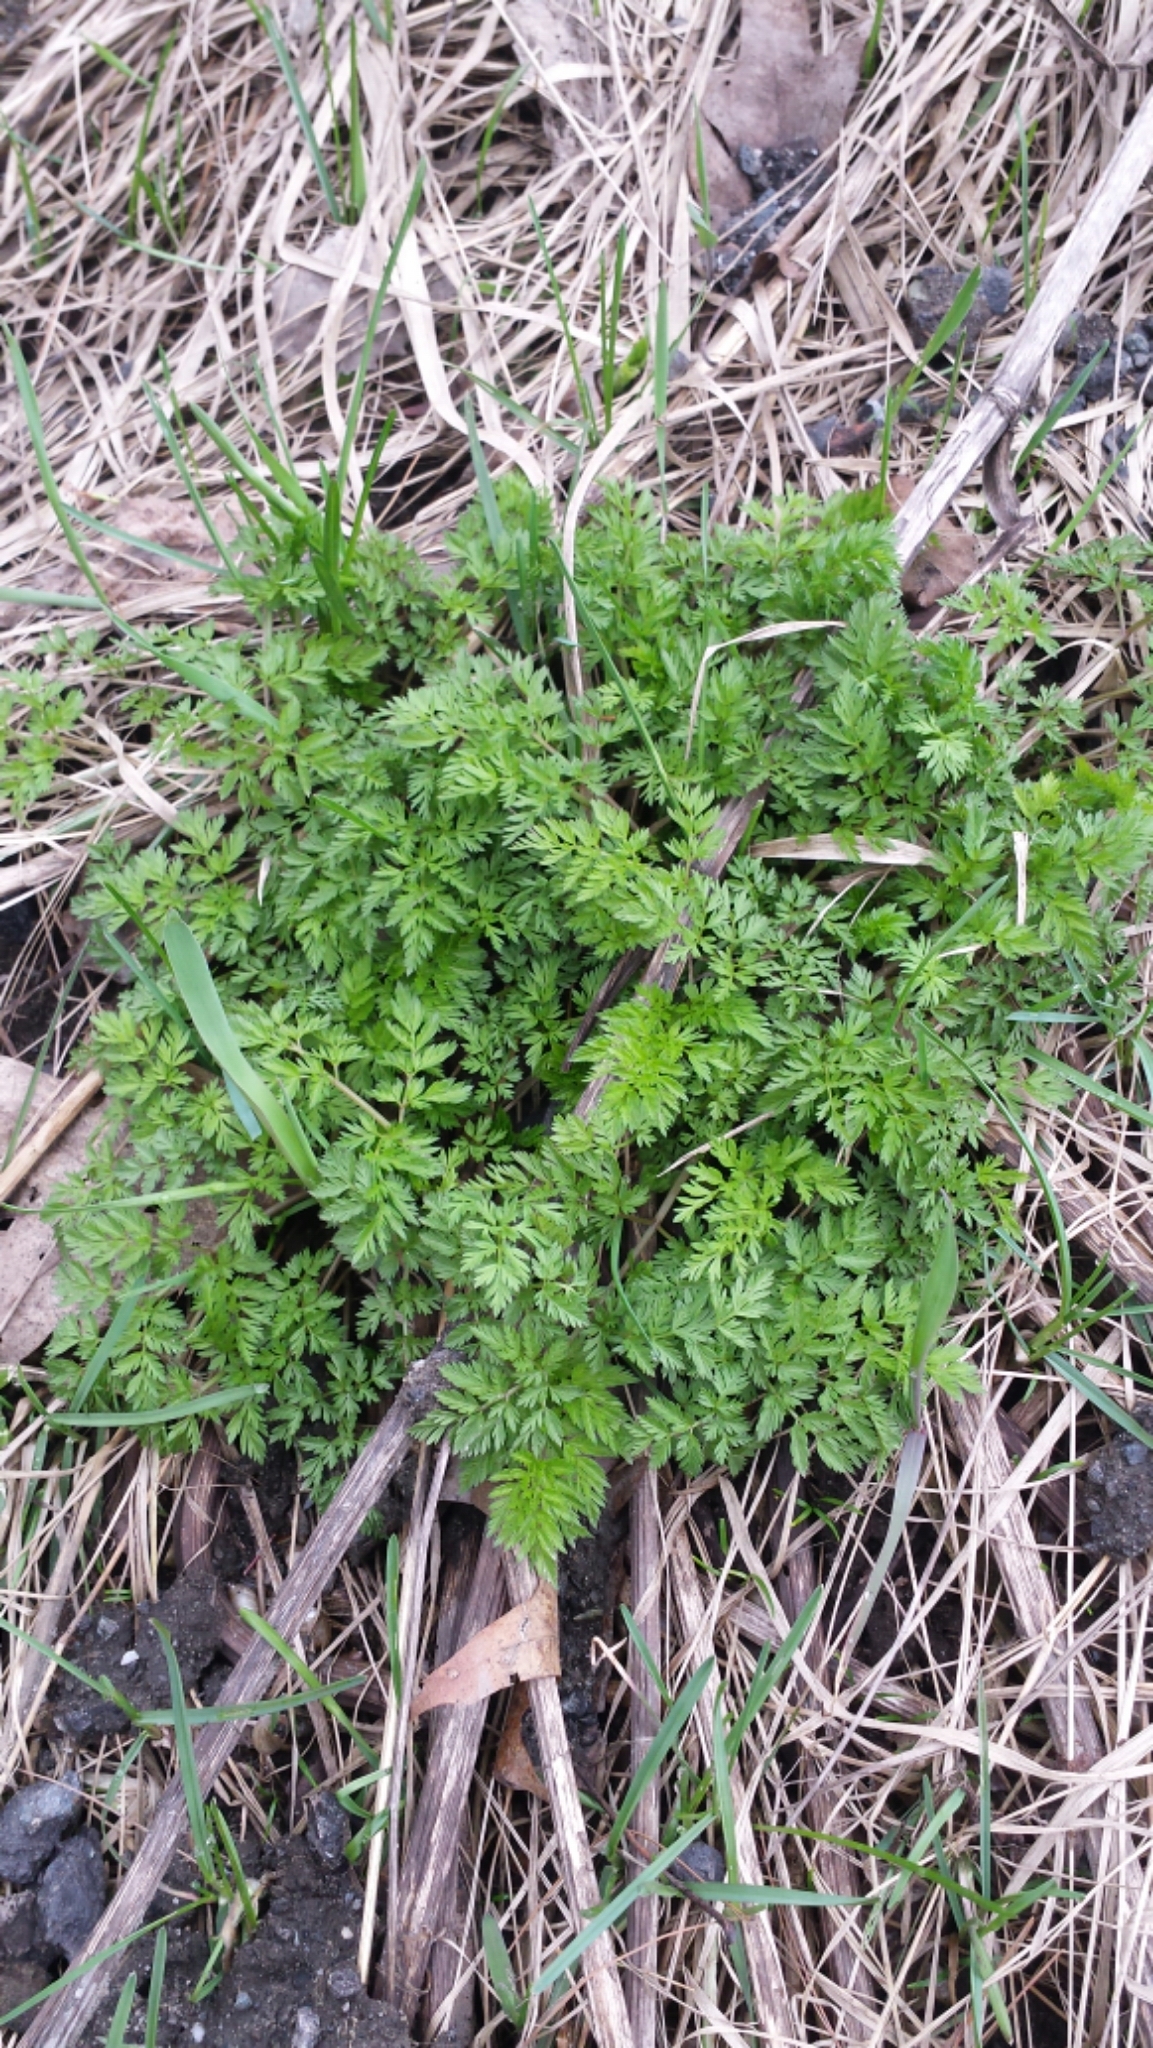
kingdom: Plantae
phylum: Tracheophyta
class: Magnoliopsida
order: Apiales
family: Apiaceae
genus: Anthriscus
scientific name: Anthriscus sylvestris
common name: Cow parsley
